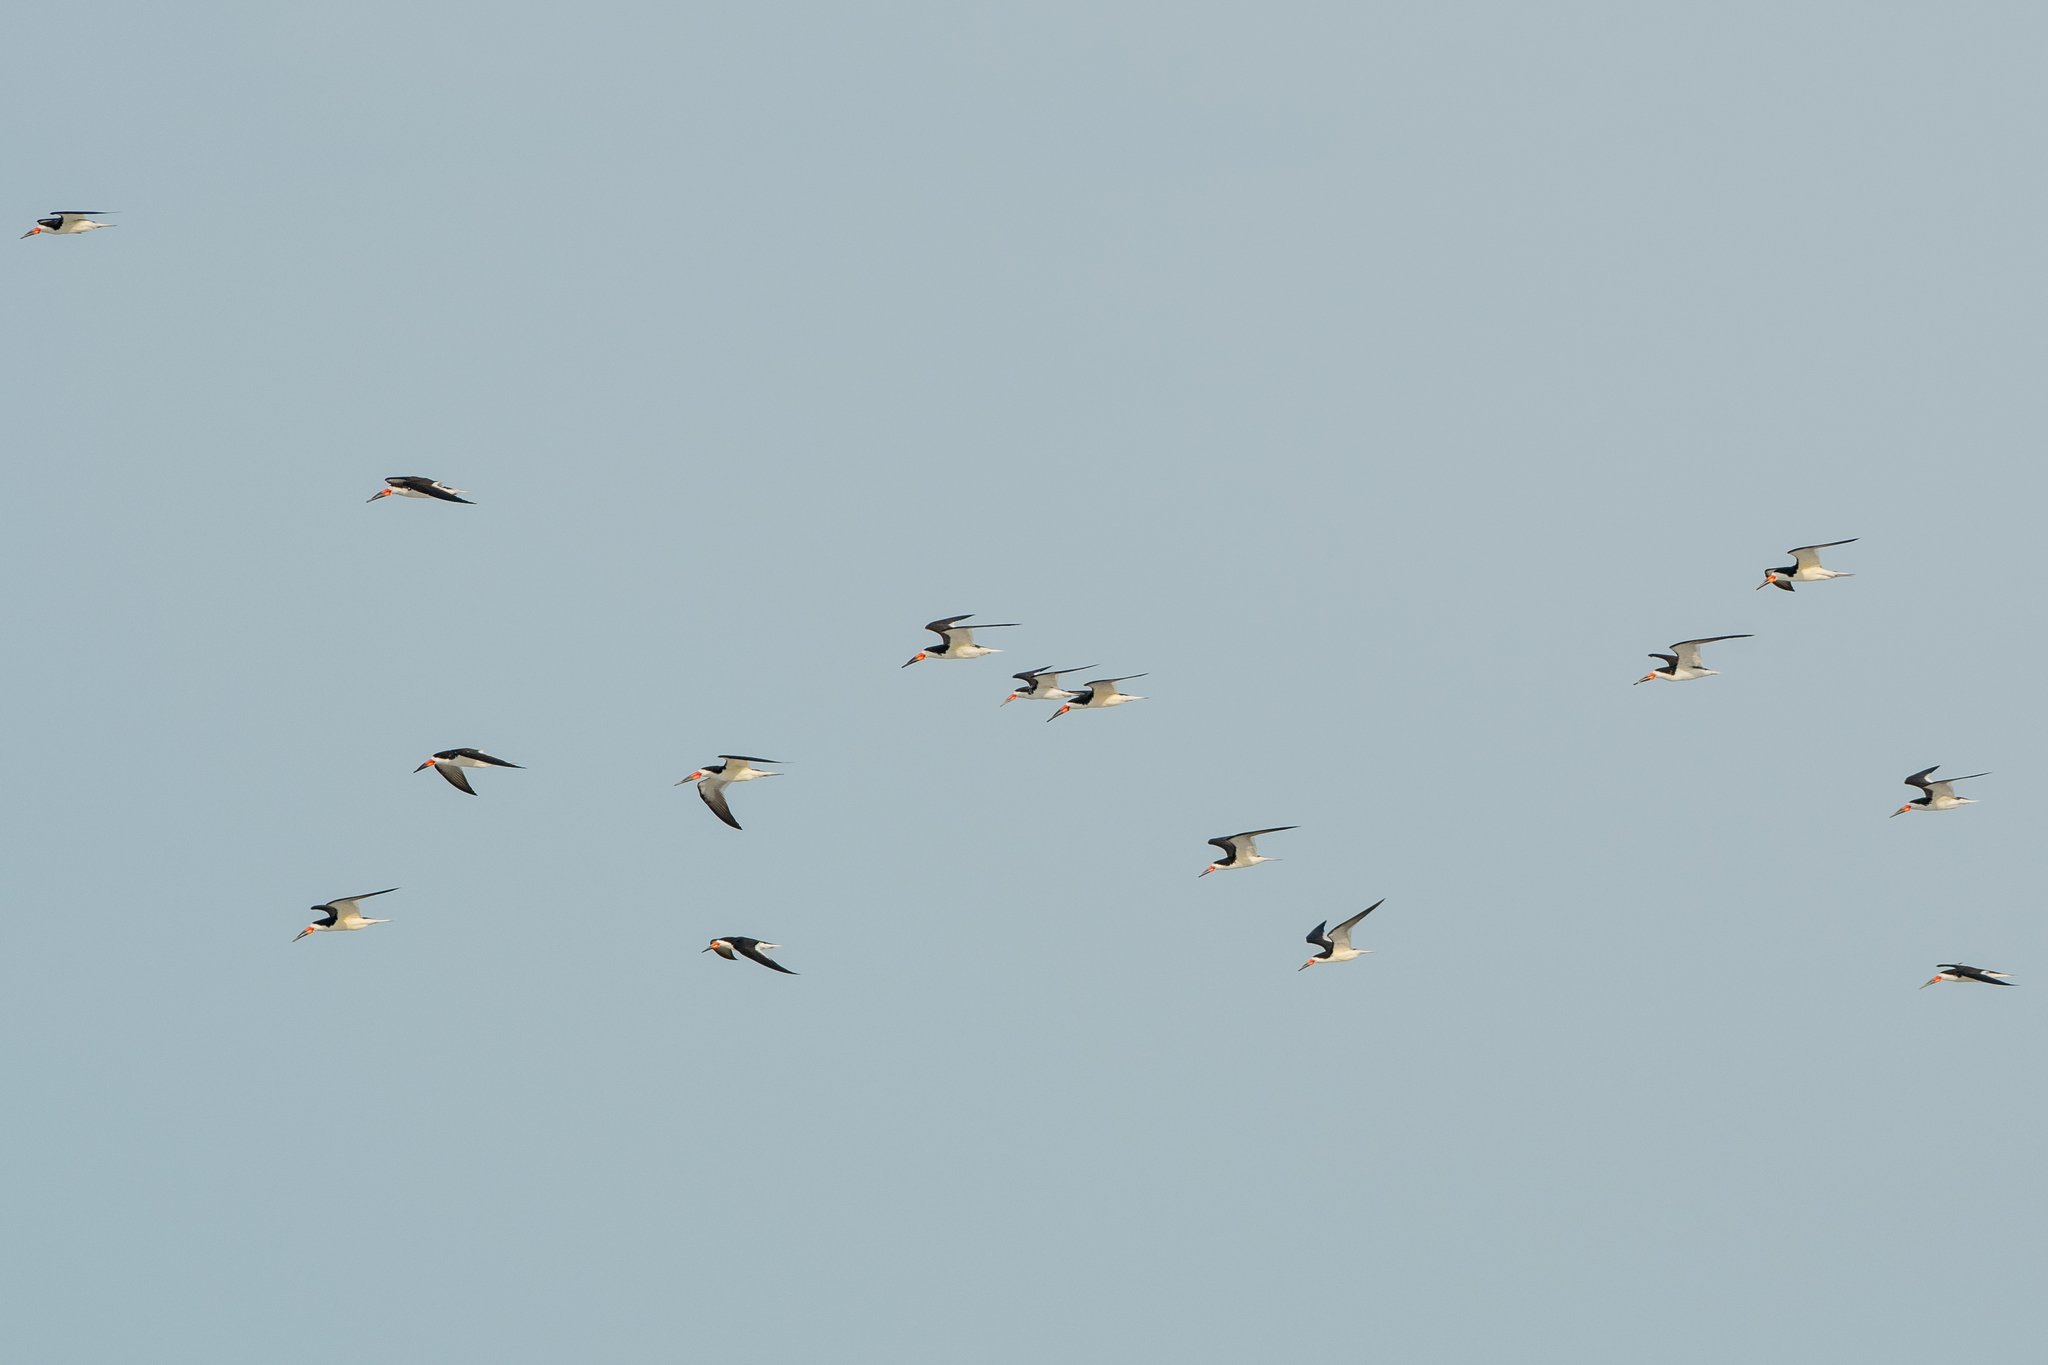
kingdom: Animalia
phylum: Chordata
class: Aves
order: Charadriiformes
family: Laridae
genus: Rynchops
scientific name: Rynchops niger
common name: Black skimmer
